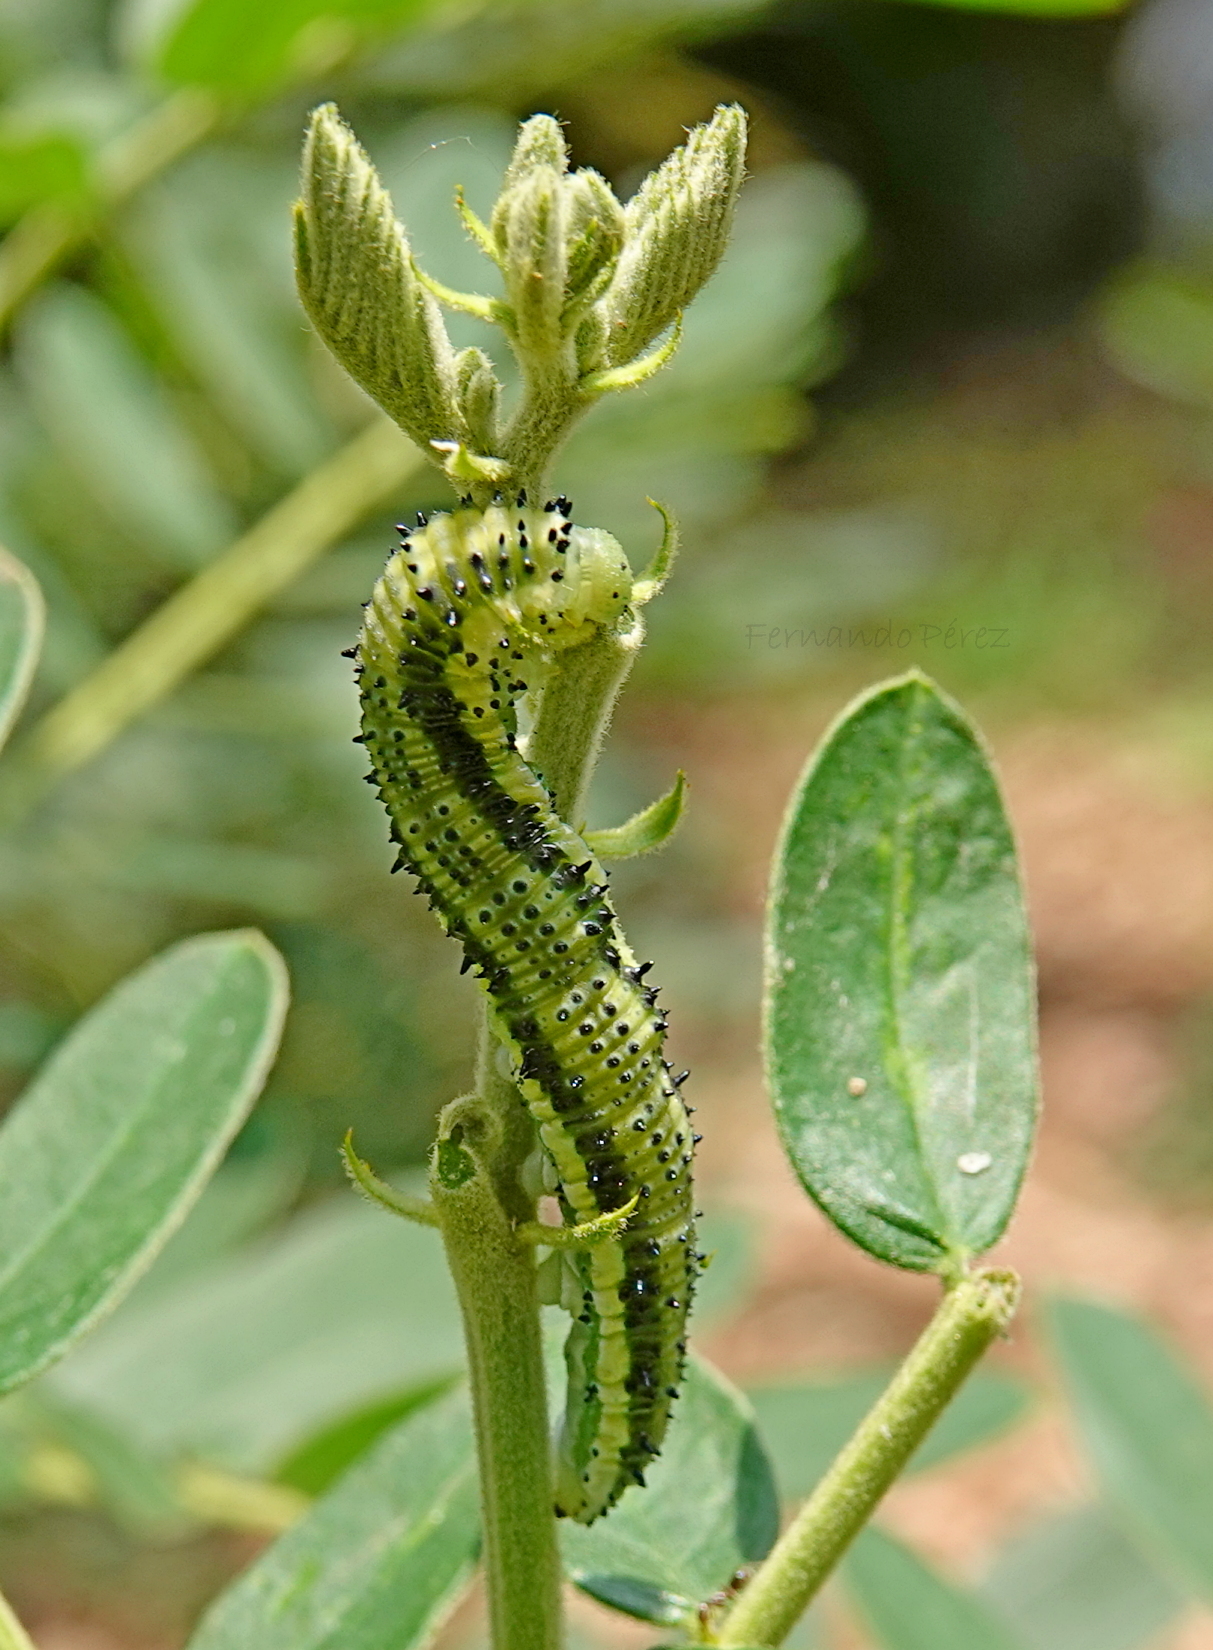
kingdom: Animalia
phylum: Arthropoda
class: Insecta
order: Lepidoptera
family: Pieridae
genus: Phoebis
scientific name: Phoebis philea
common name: Orange-barred giant sulphur
